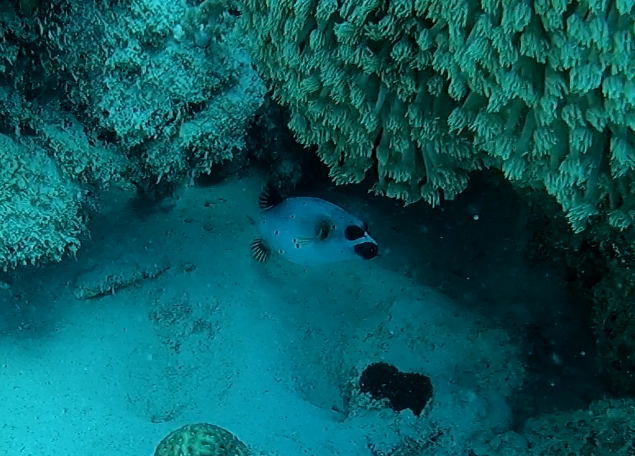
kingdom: Animalia
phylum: Chordata
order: Tetraodontiformes
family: Tetraodontidae
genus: Arothron
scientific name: Arothron nigropunctatus
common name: Black spotted blow fish
